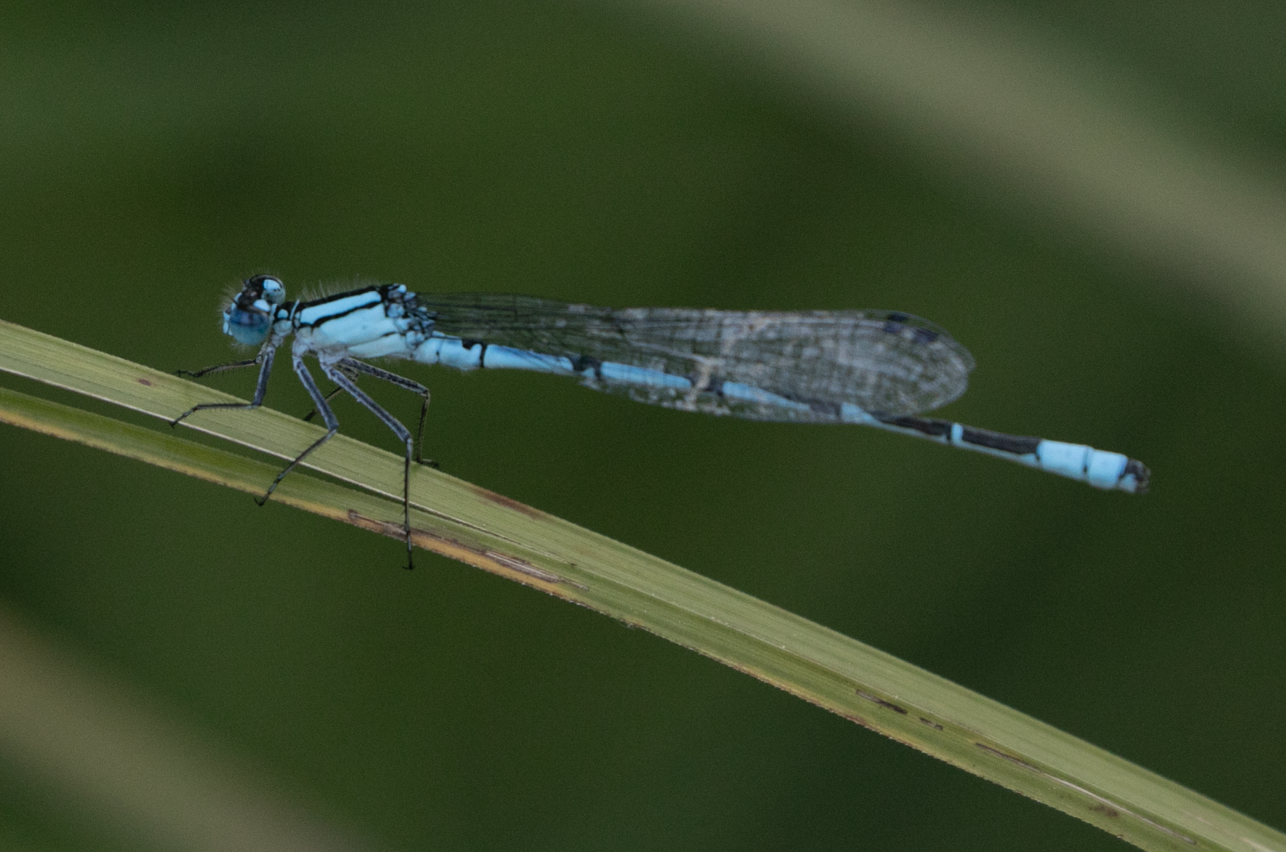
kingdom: Animalia
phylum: Arthropoda
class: Insecta
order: Odonata
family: Coenagrionidae
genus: Enallagma
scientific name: Enallagma cyathigerum
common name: Common blue damselfly
